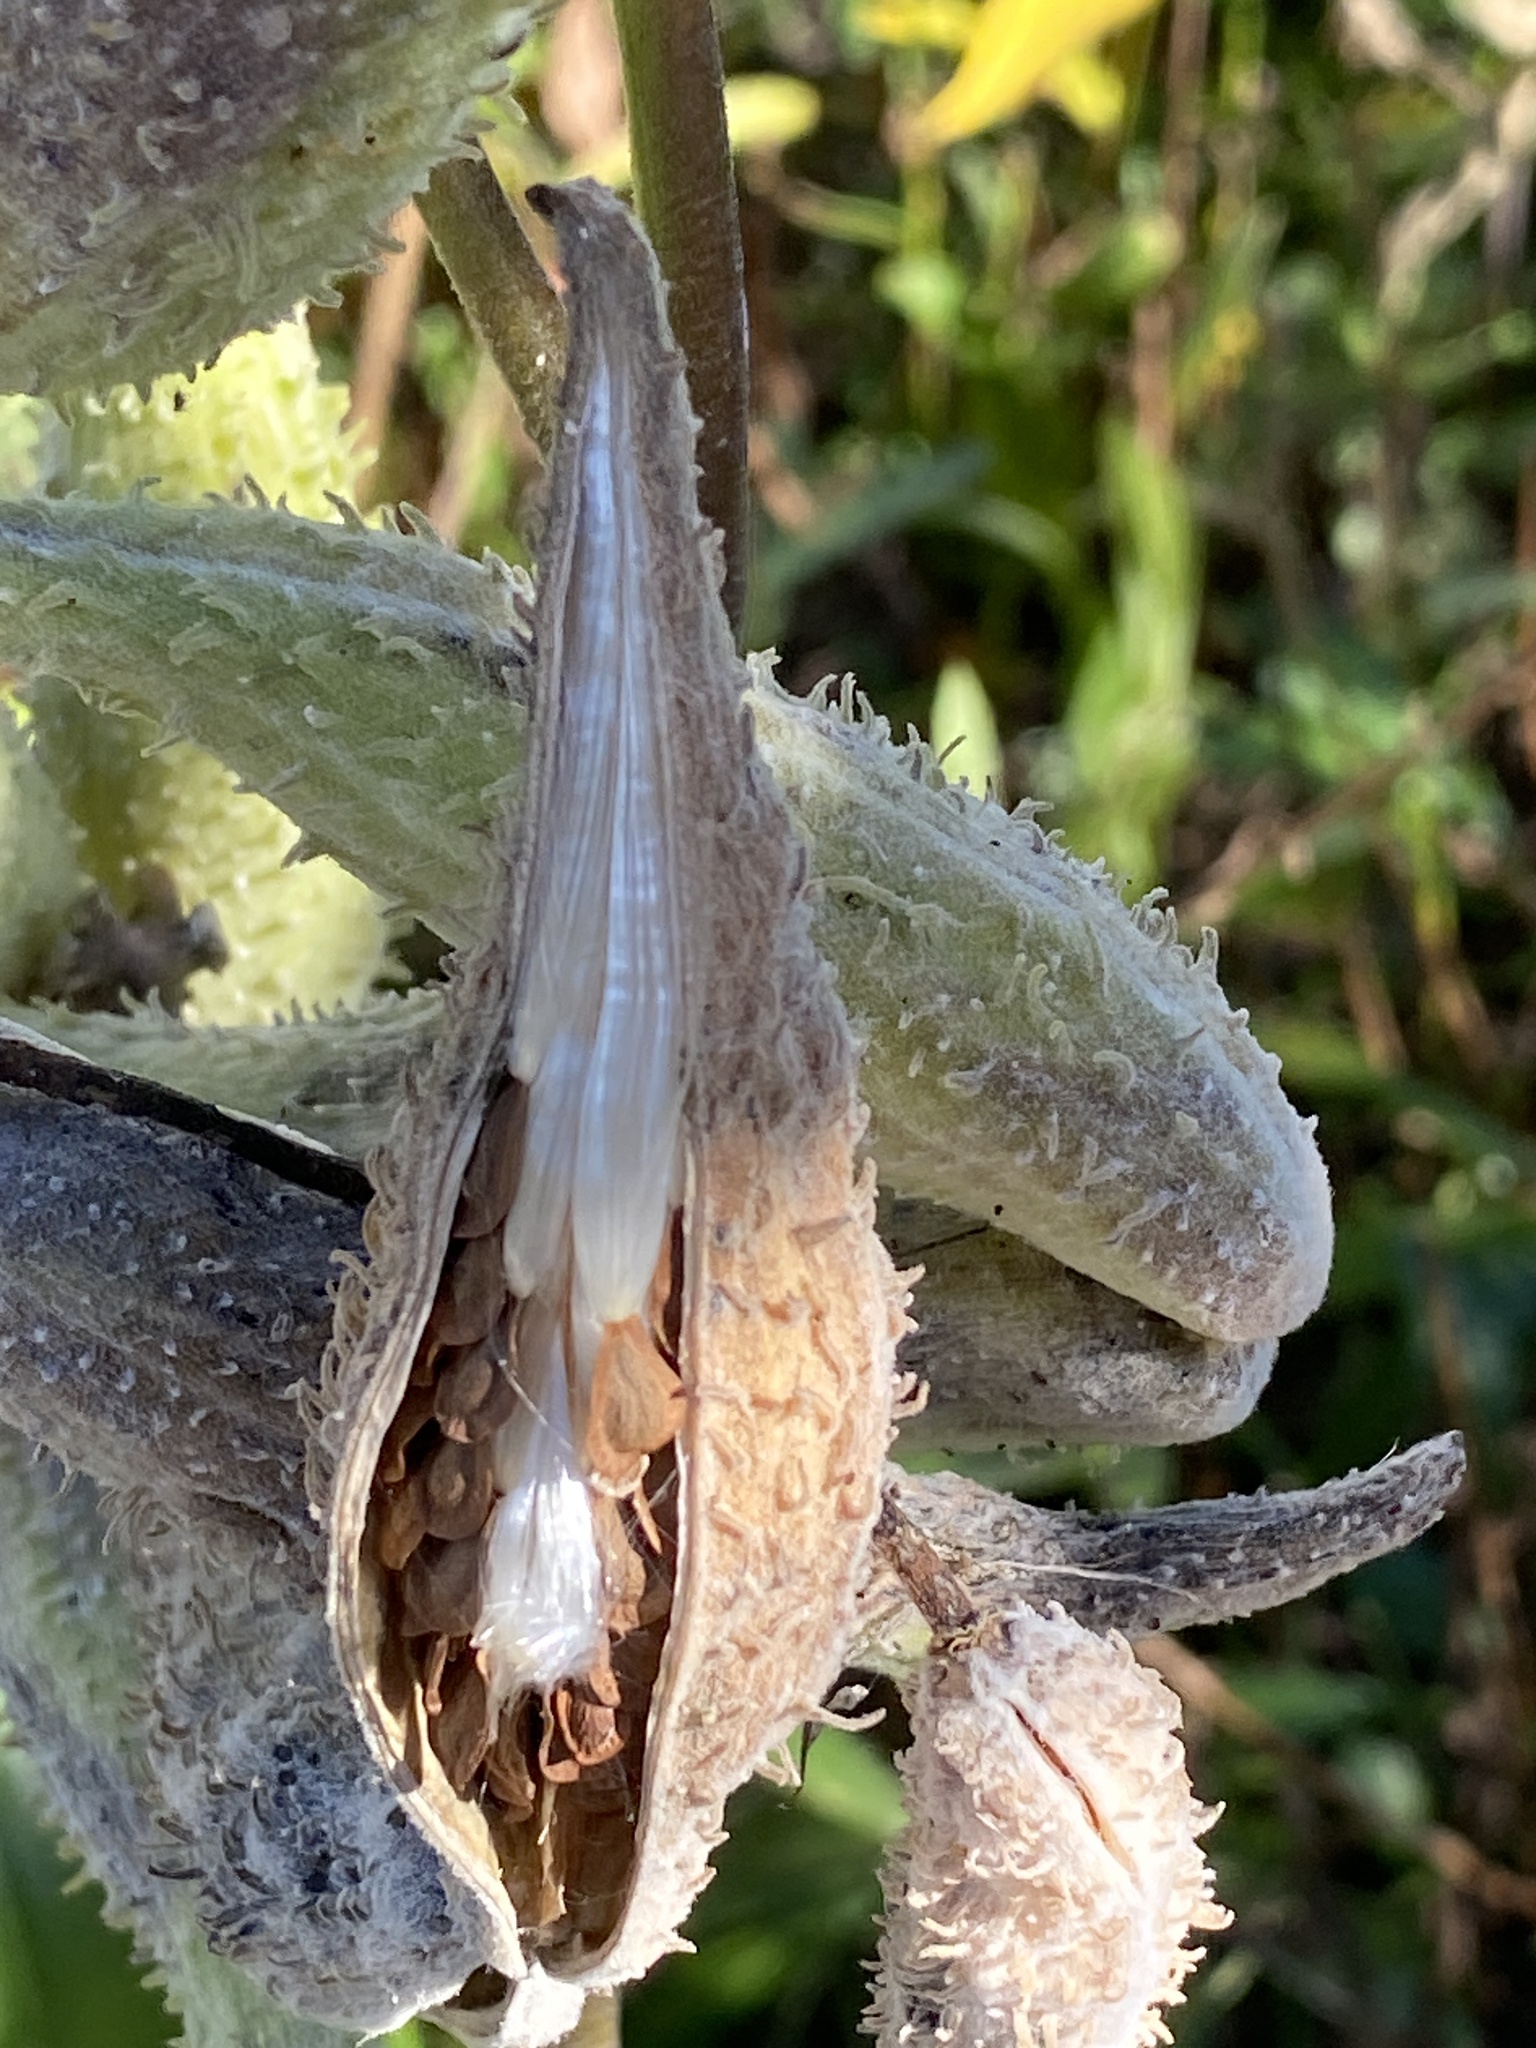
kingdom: Plantae
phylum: Tracheophyta
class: Magnoliopsida
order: Gentianales
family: Apocynaceae
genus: Asclepias
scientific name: Asclepias syriaca
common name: Common milkweed
